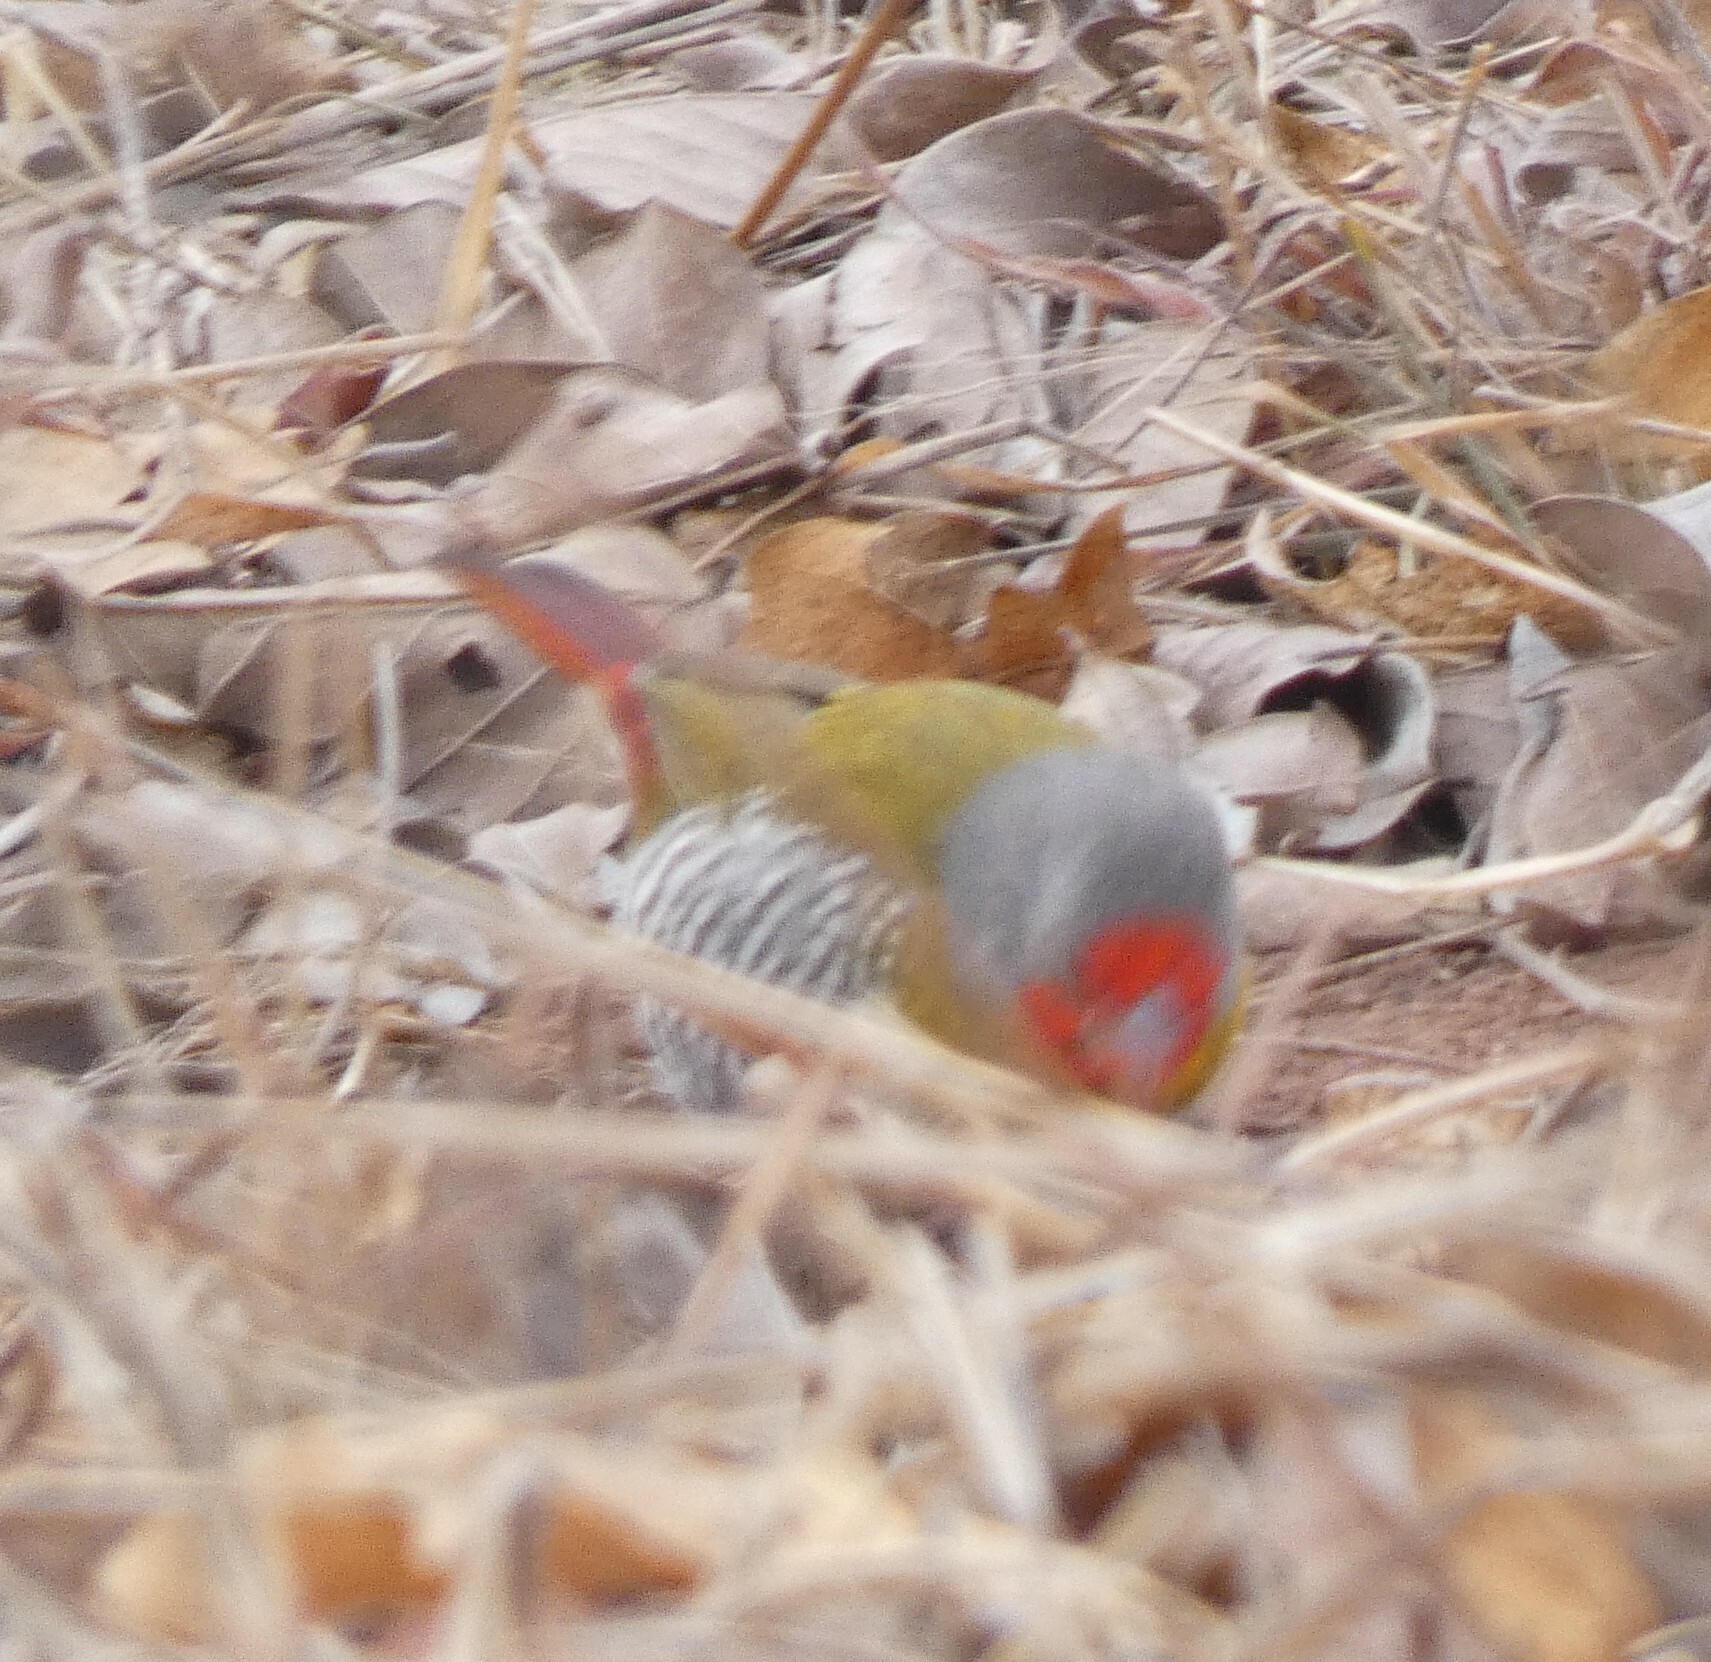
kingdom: Animalia
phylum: Chordata
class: Aves
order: Passeriformes
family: Estrildidae
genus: Pytilia
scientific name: Pytilia melba
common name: Green-winged pytilia
